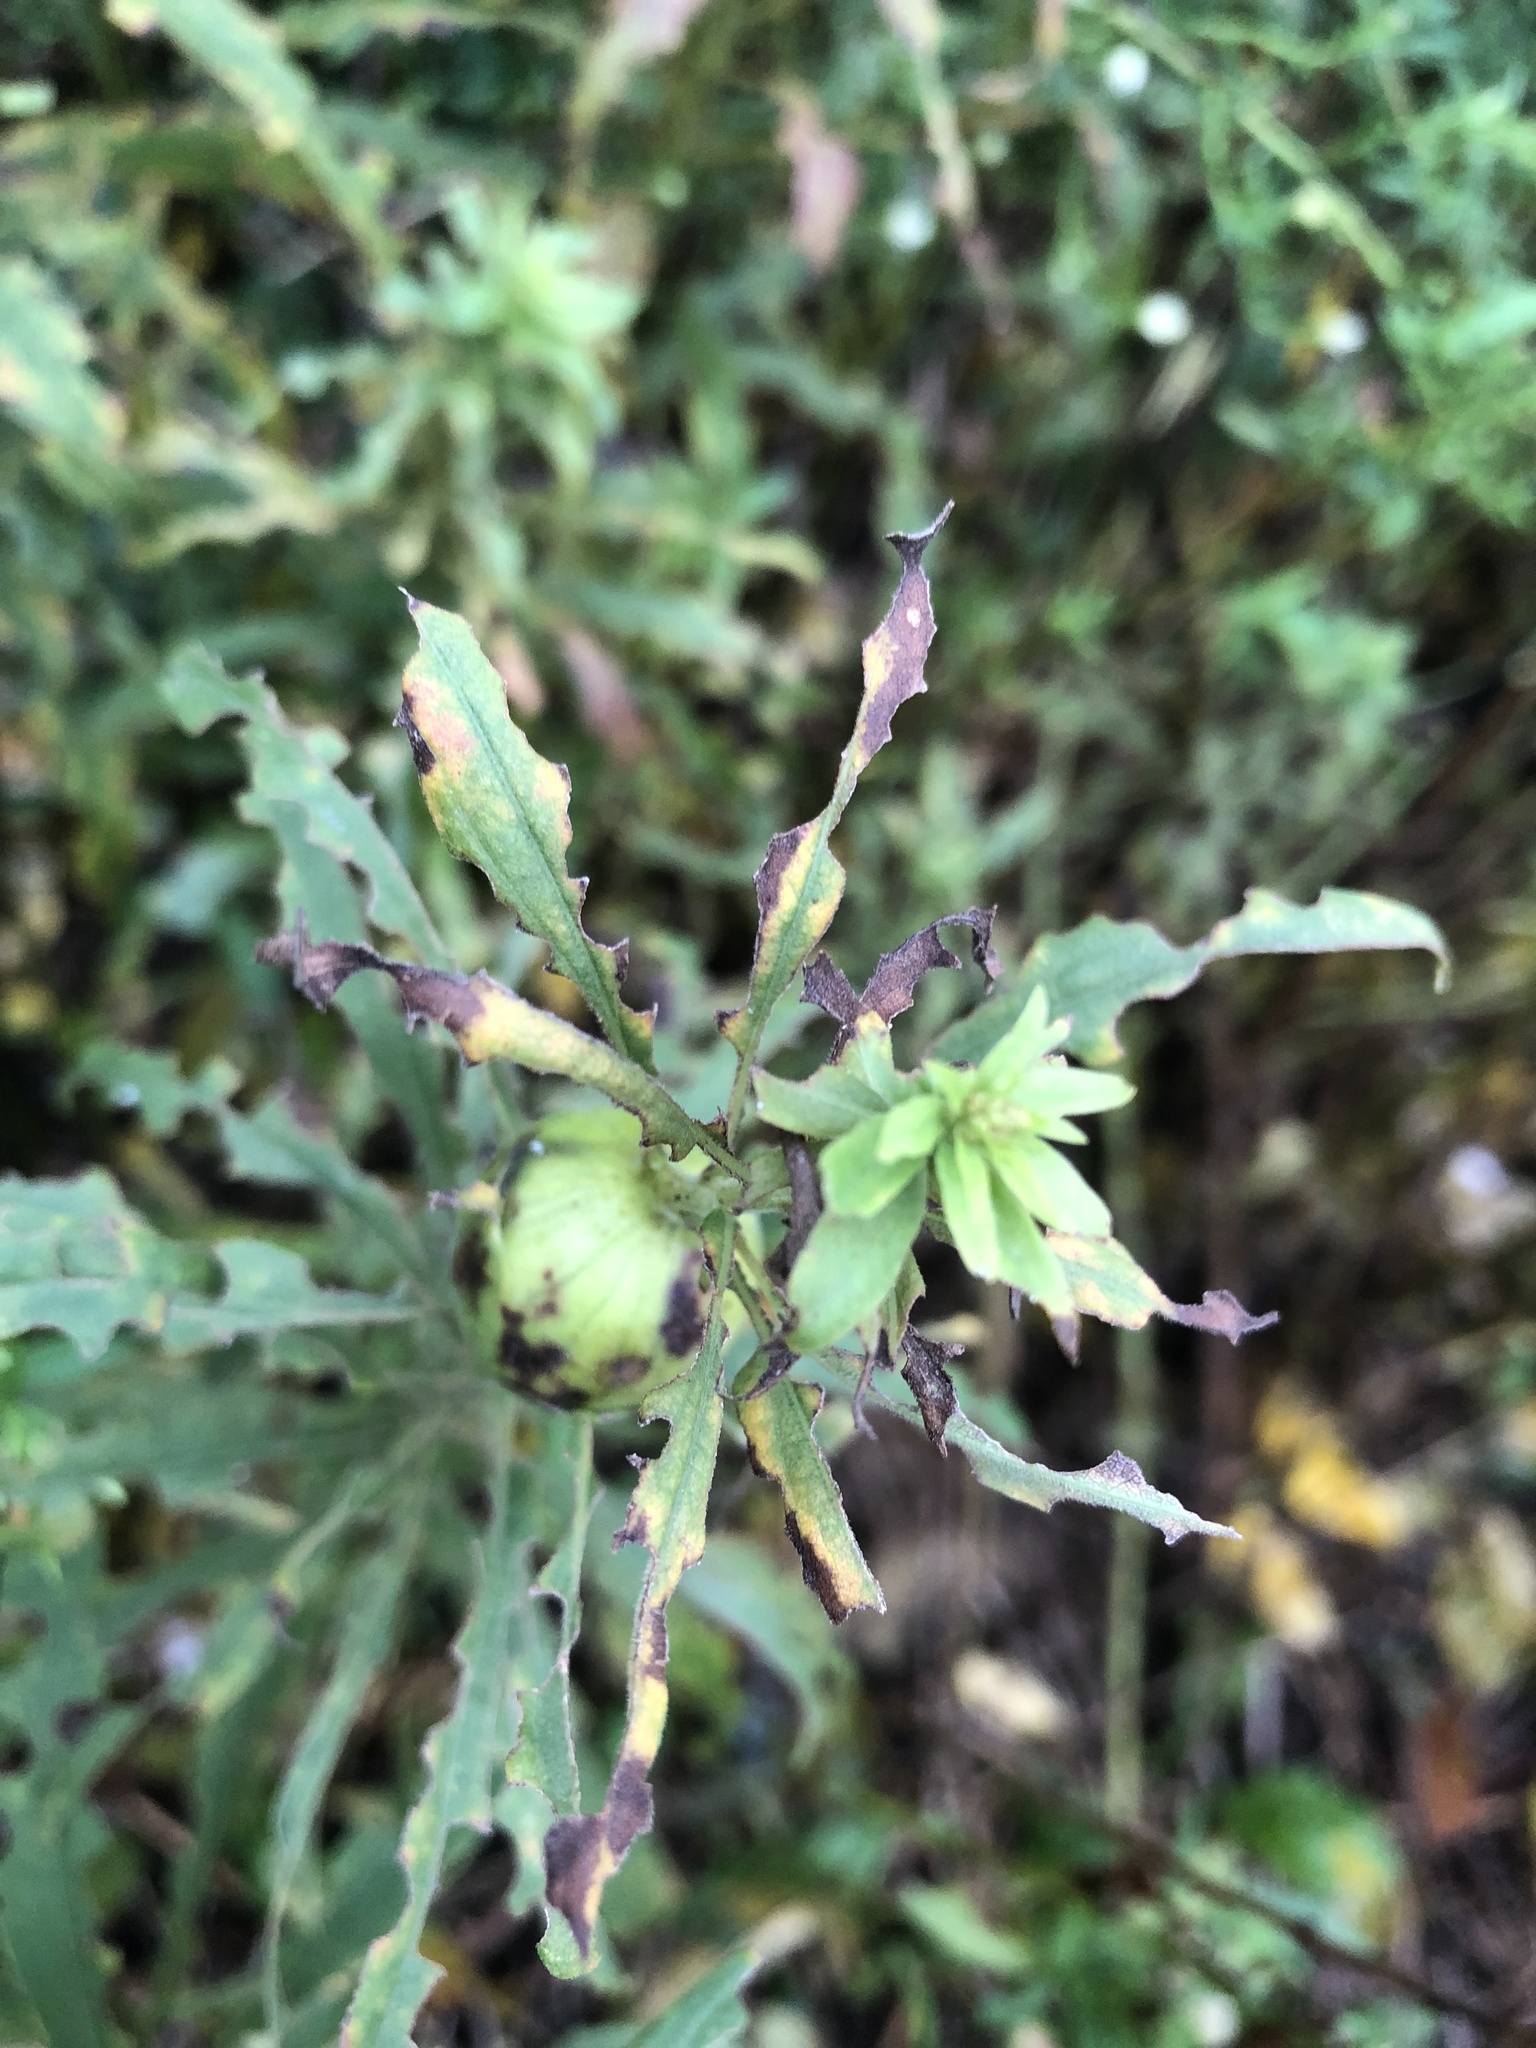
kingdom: Animalia
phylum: Arthropoda
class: Insecta
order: Diptera
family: Tephritidae
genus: Eurosta
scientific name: Eurosta solidaginis
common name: Goldenrod gall fly
